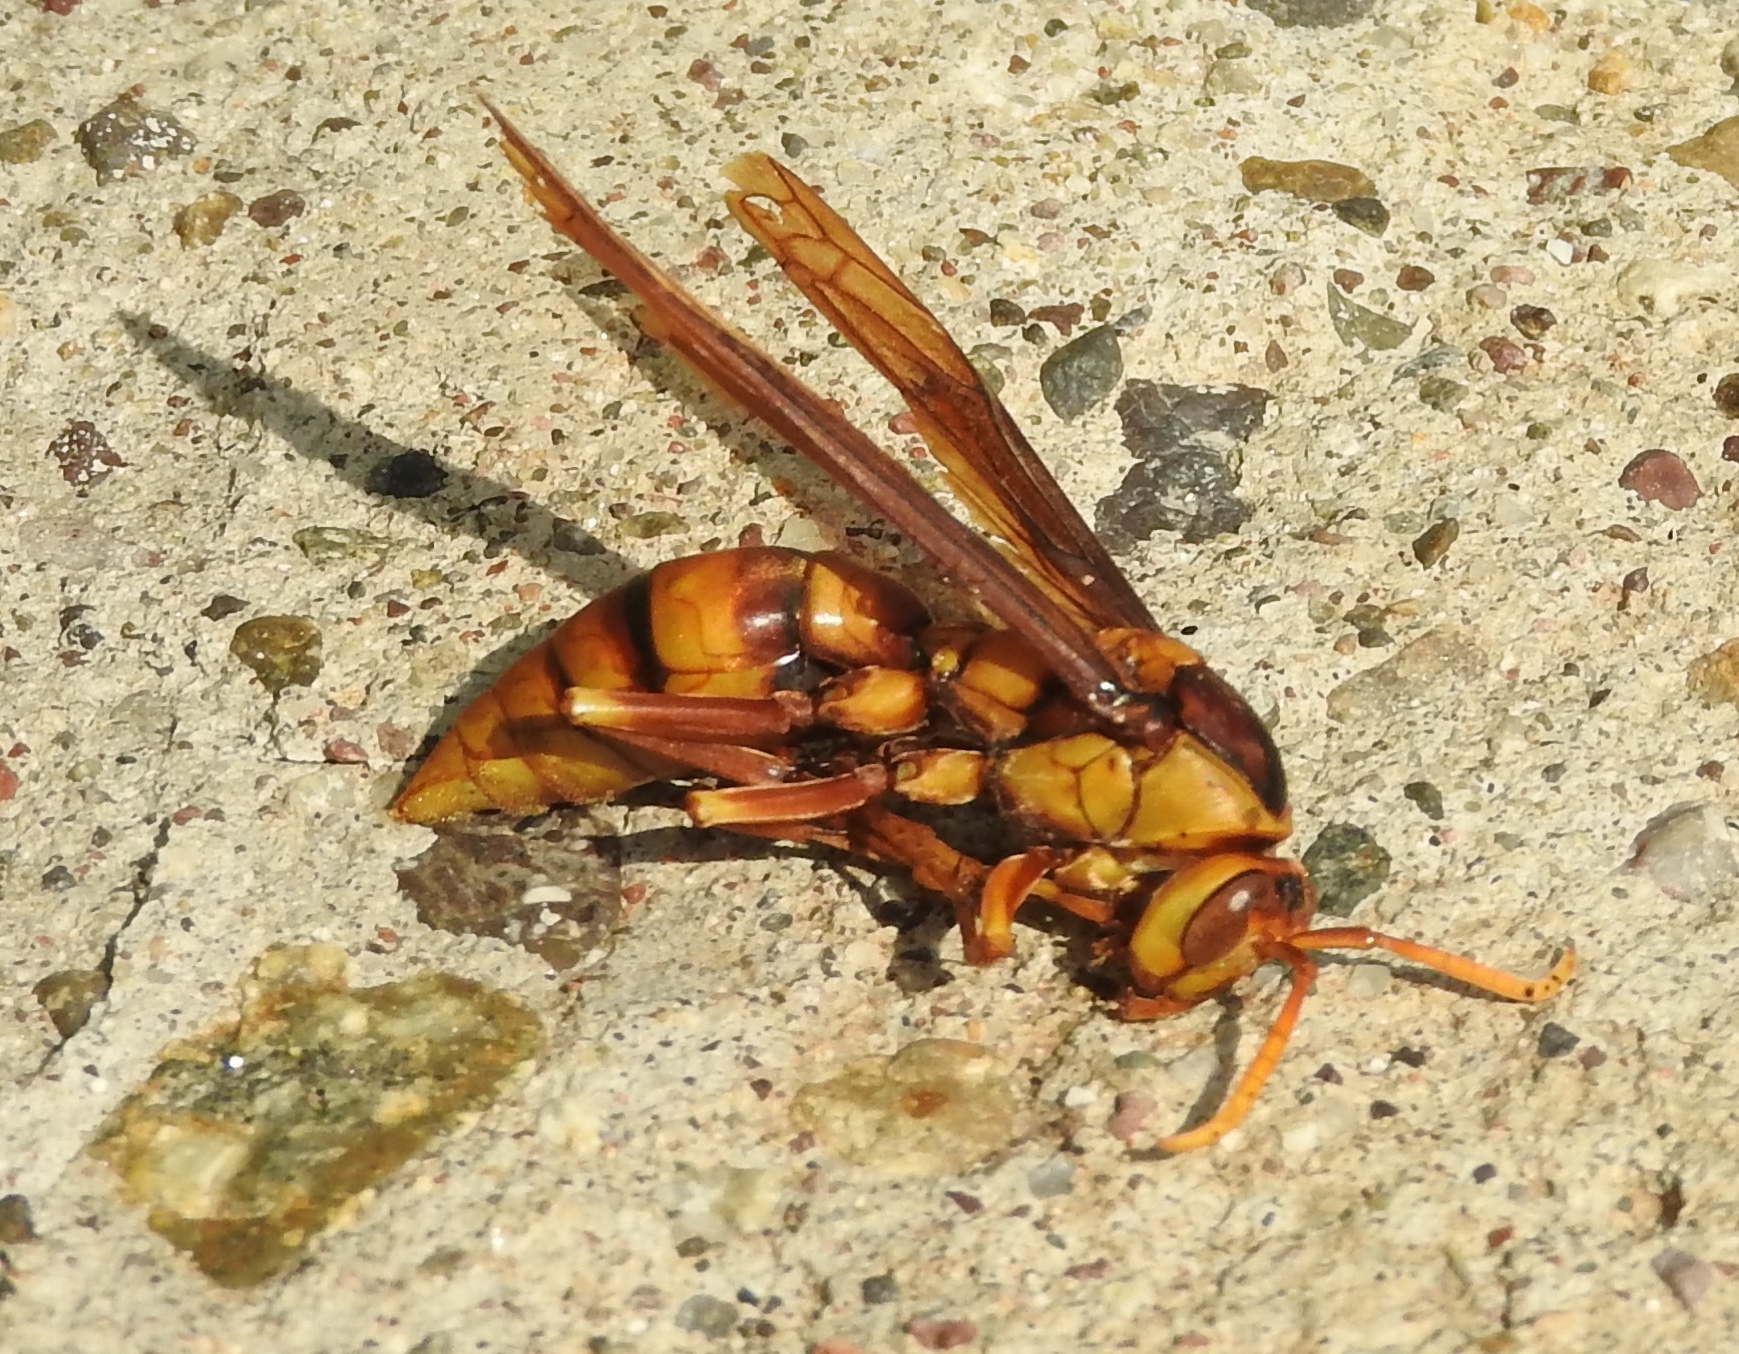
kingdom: Animalia
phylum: Arthropoda
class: Insecta
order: Hymenoptera
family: Eumenidae
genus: Polistes
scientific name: Polistes carnifex
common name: Paper wasp
